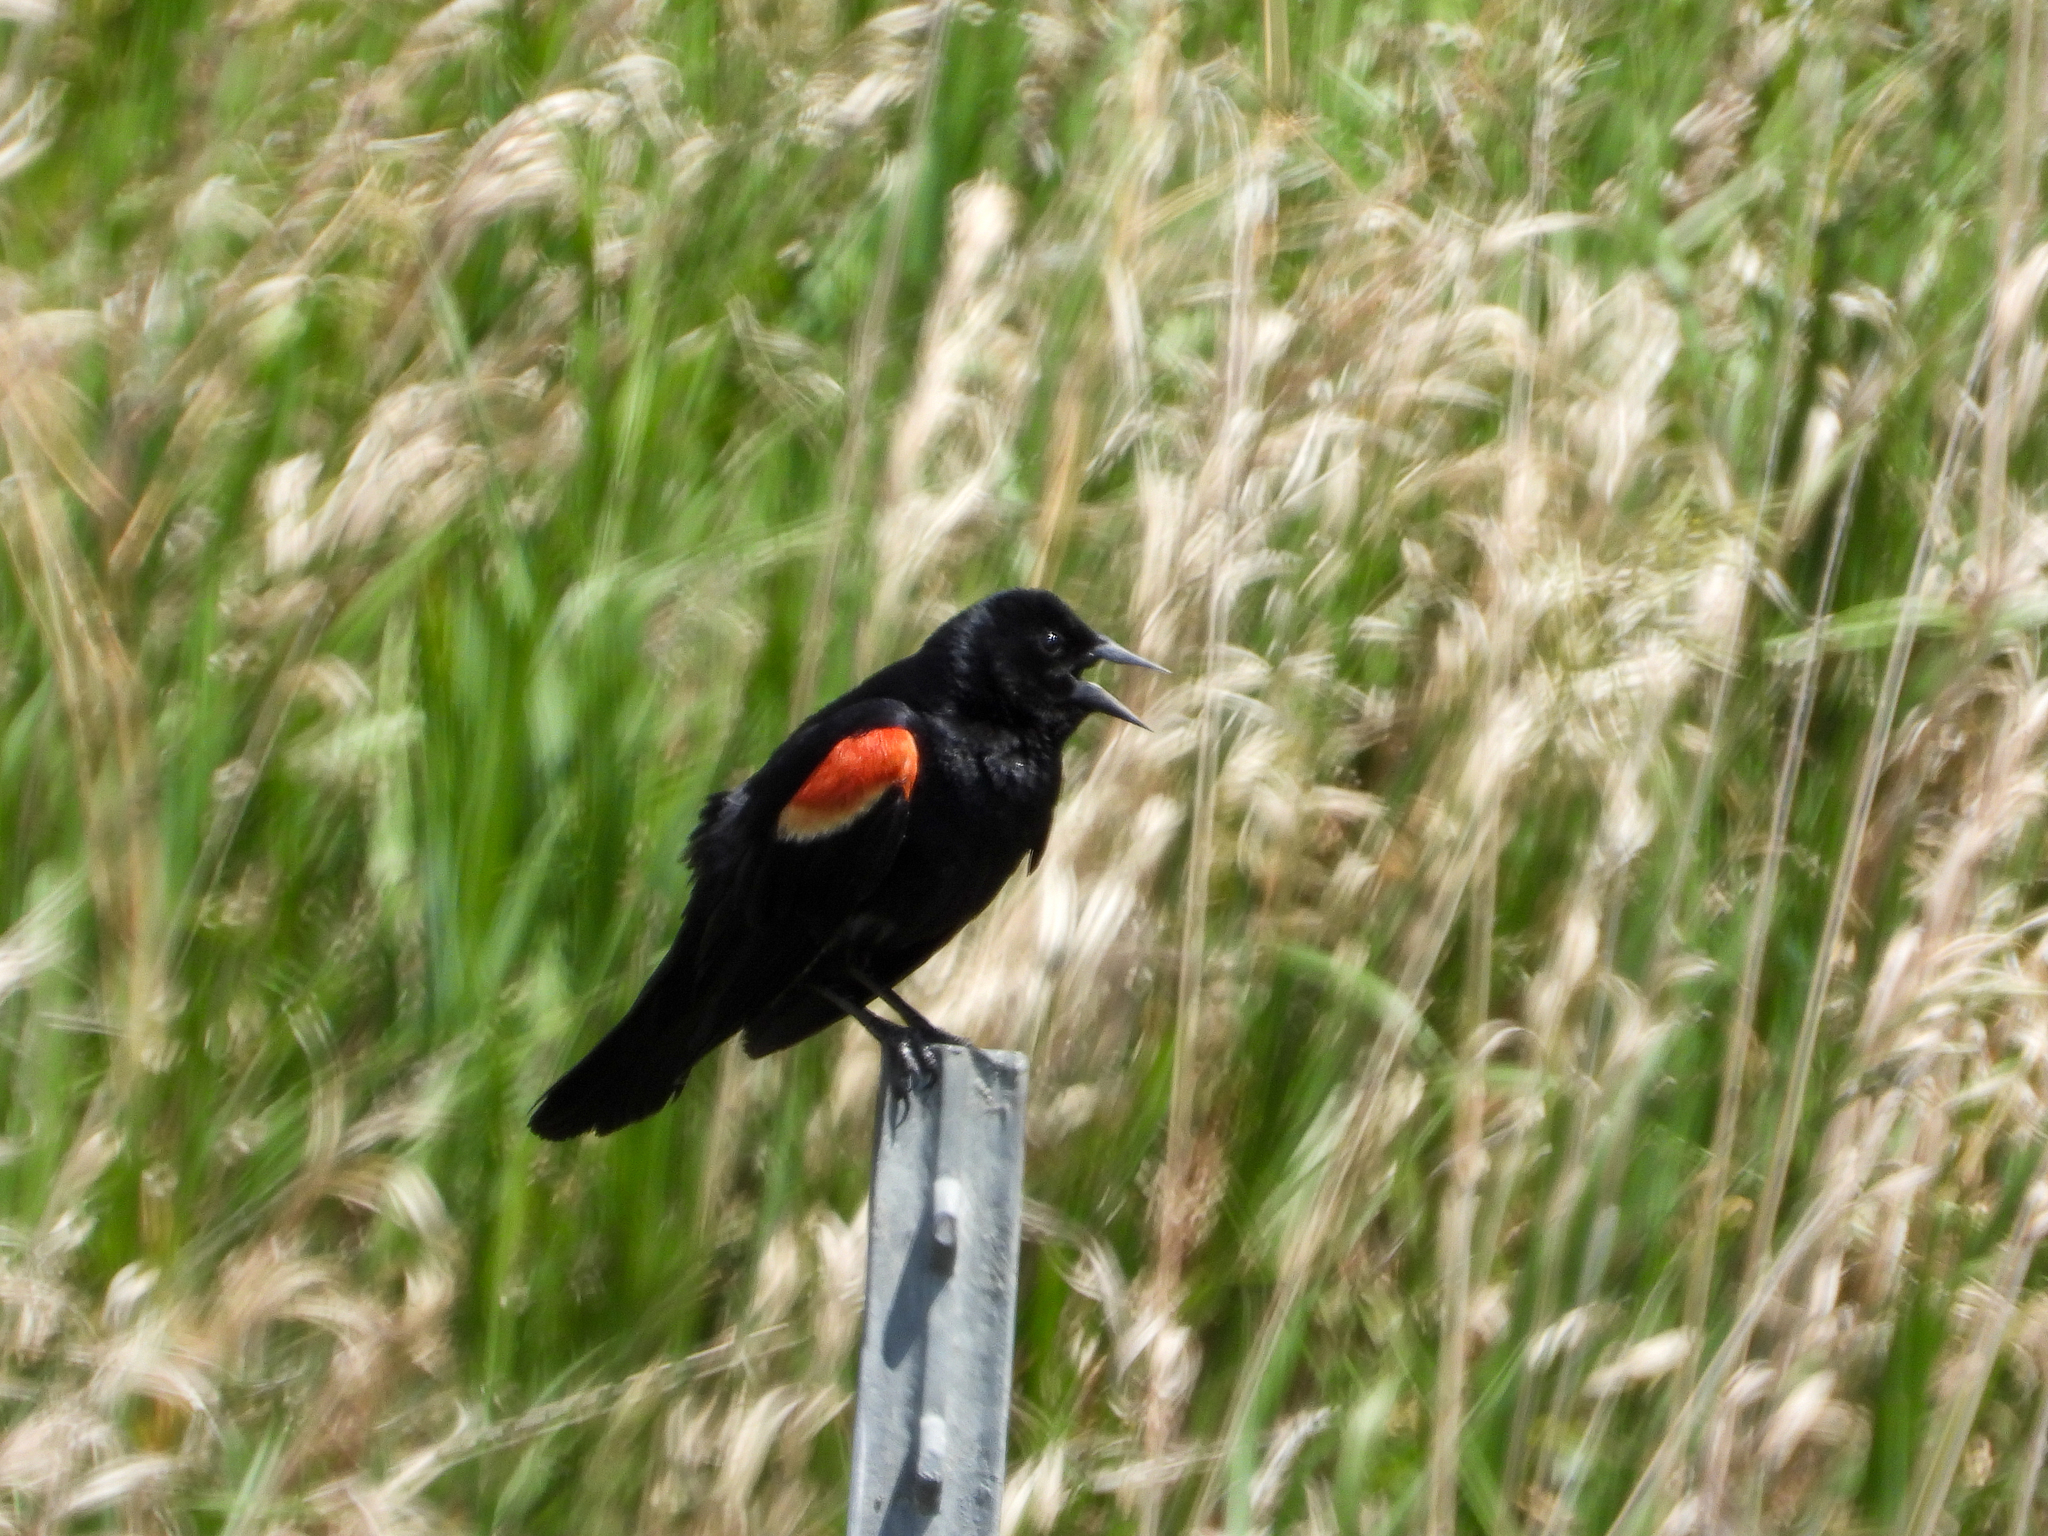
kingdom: Animalia
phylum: Chordata
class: Aves
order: Passeriformes
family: Icteridae
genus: Agelaius
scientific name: Agelaius phoeniceus
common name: Red-winged blackbird
